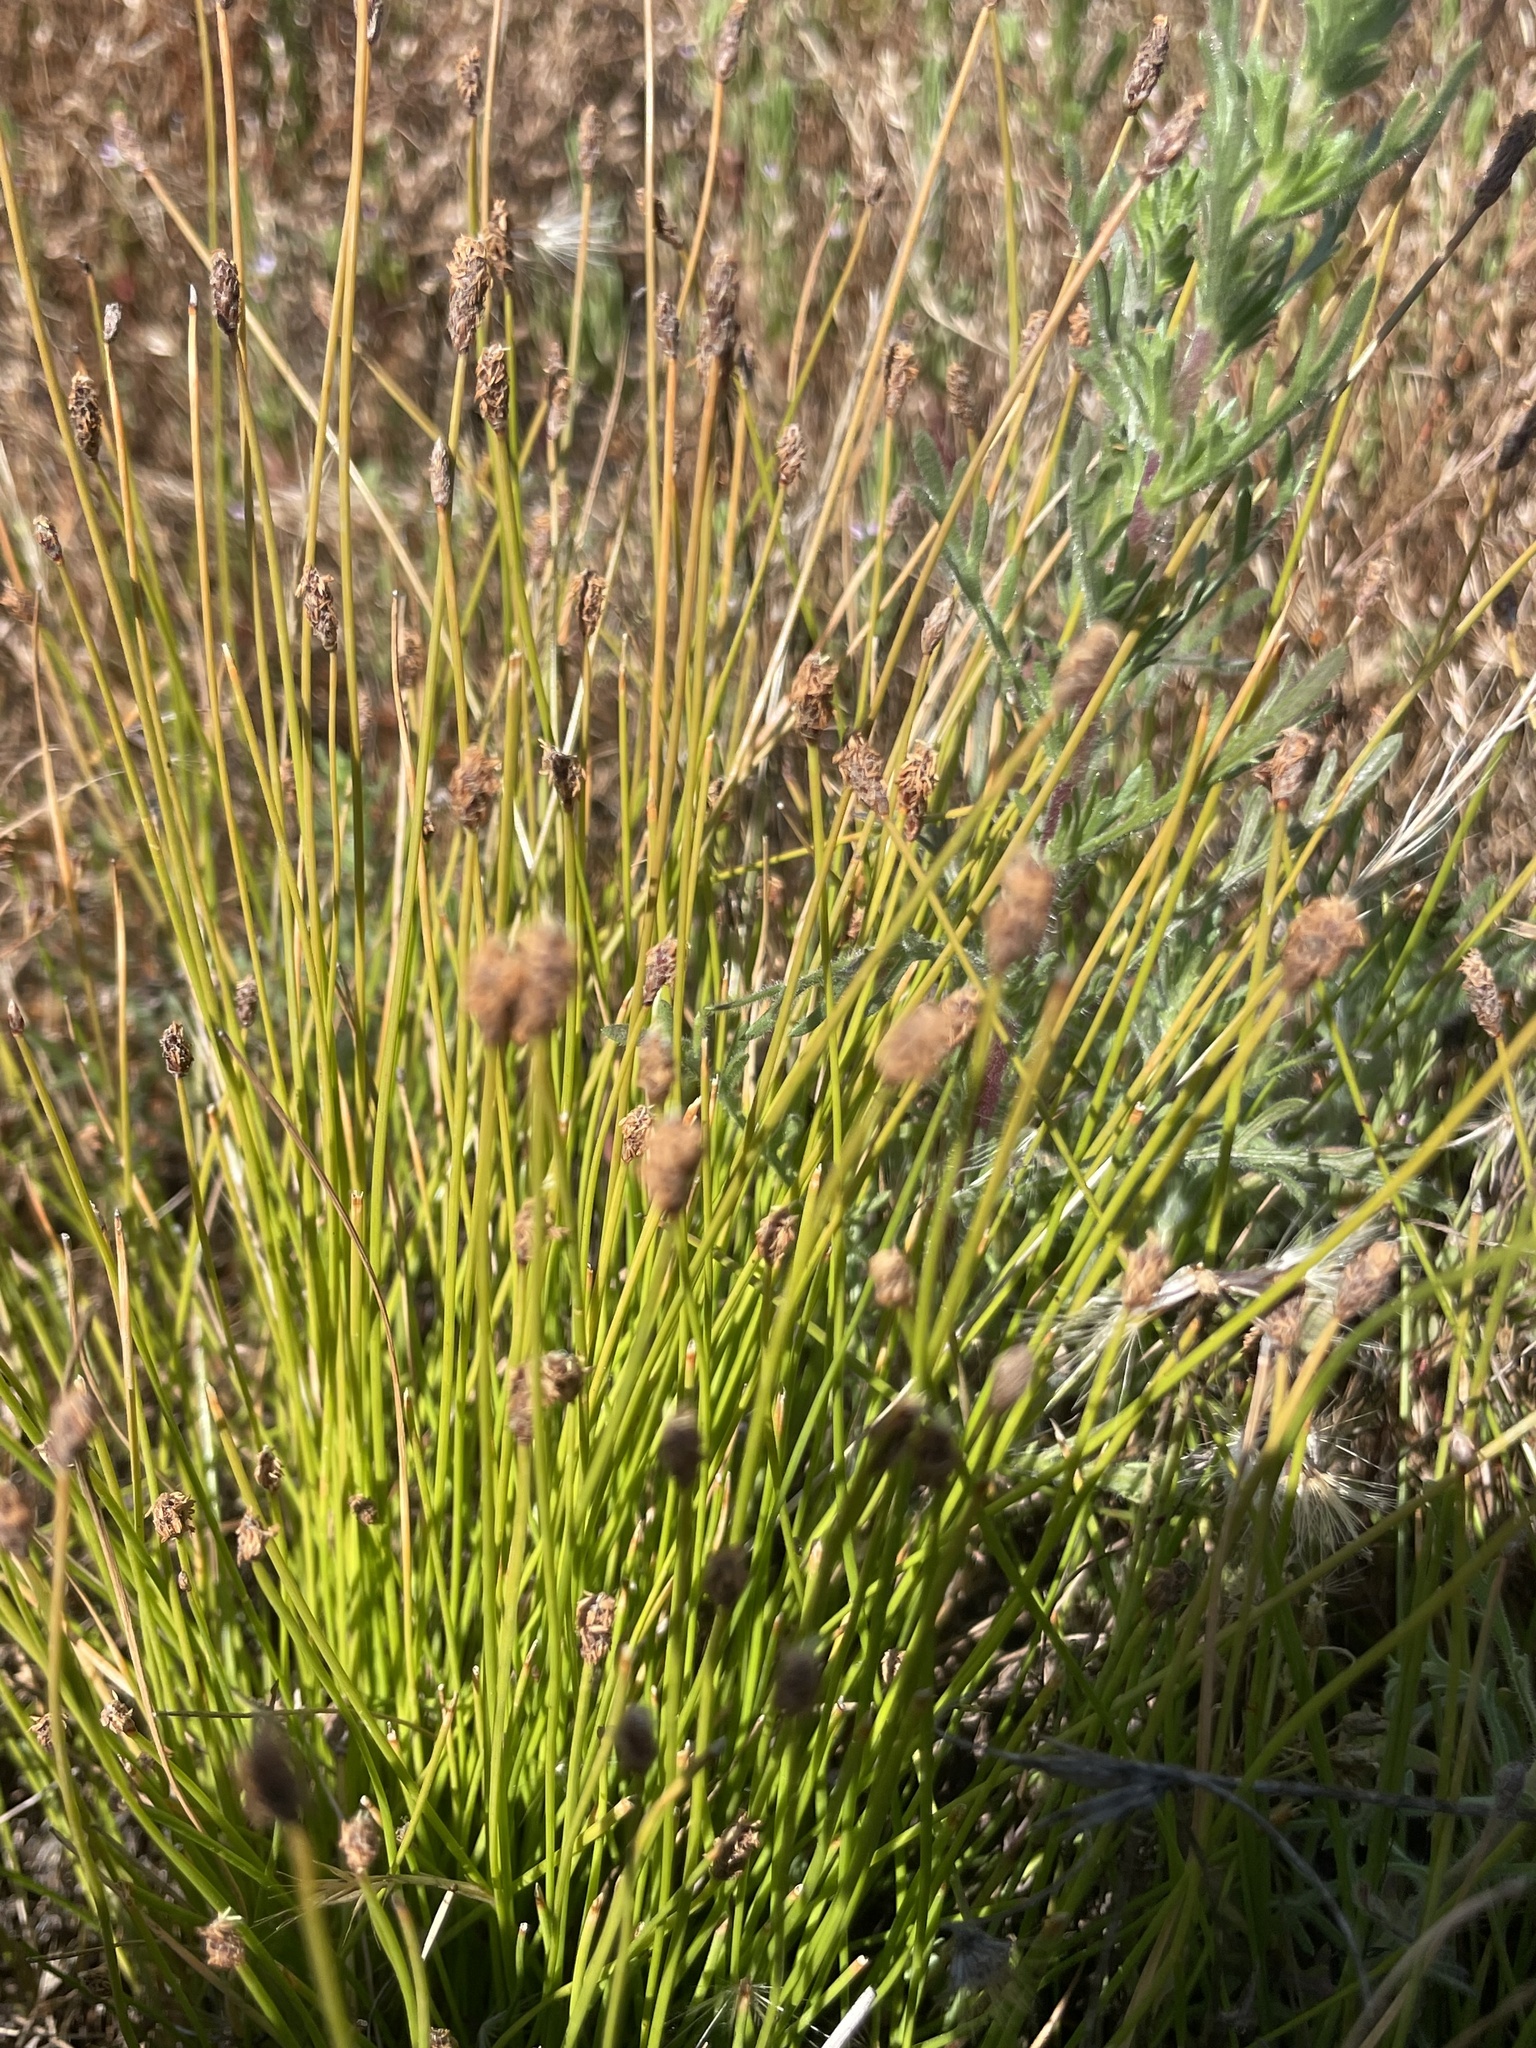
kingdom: Plantae
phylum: Tracheophyta
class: Liliopsida
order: Poales
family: Cyperaceae
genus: Eleocharis
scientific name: Eleocharis geniculata
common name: Canada spikesedge
